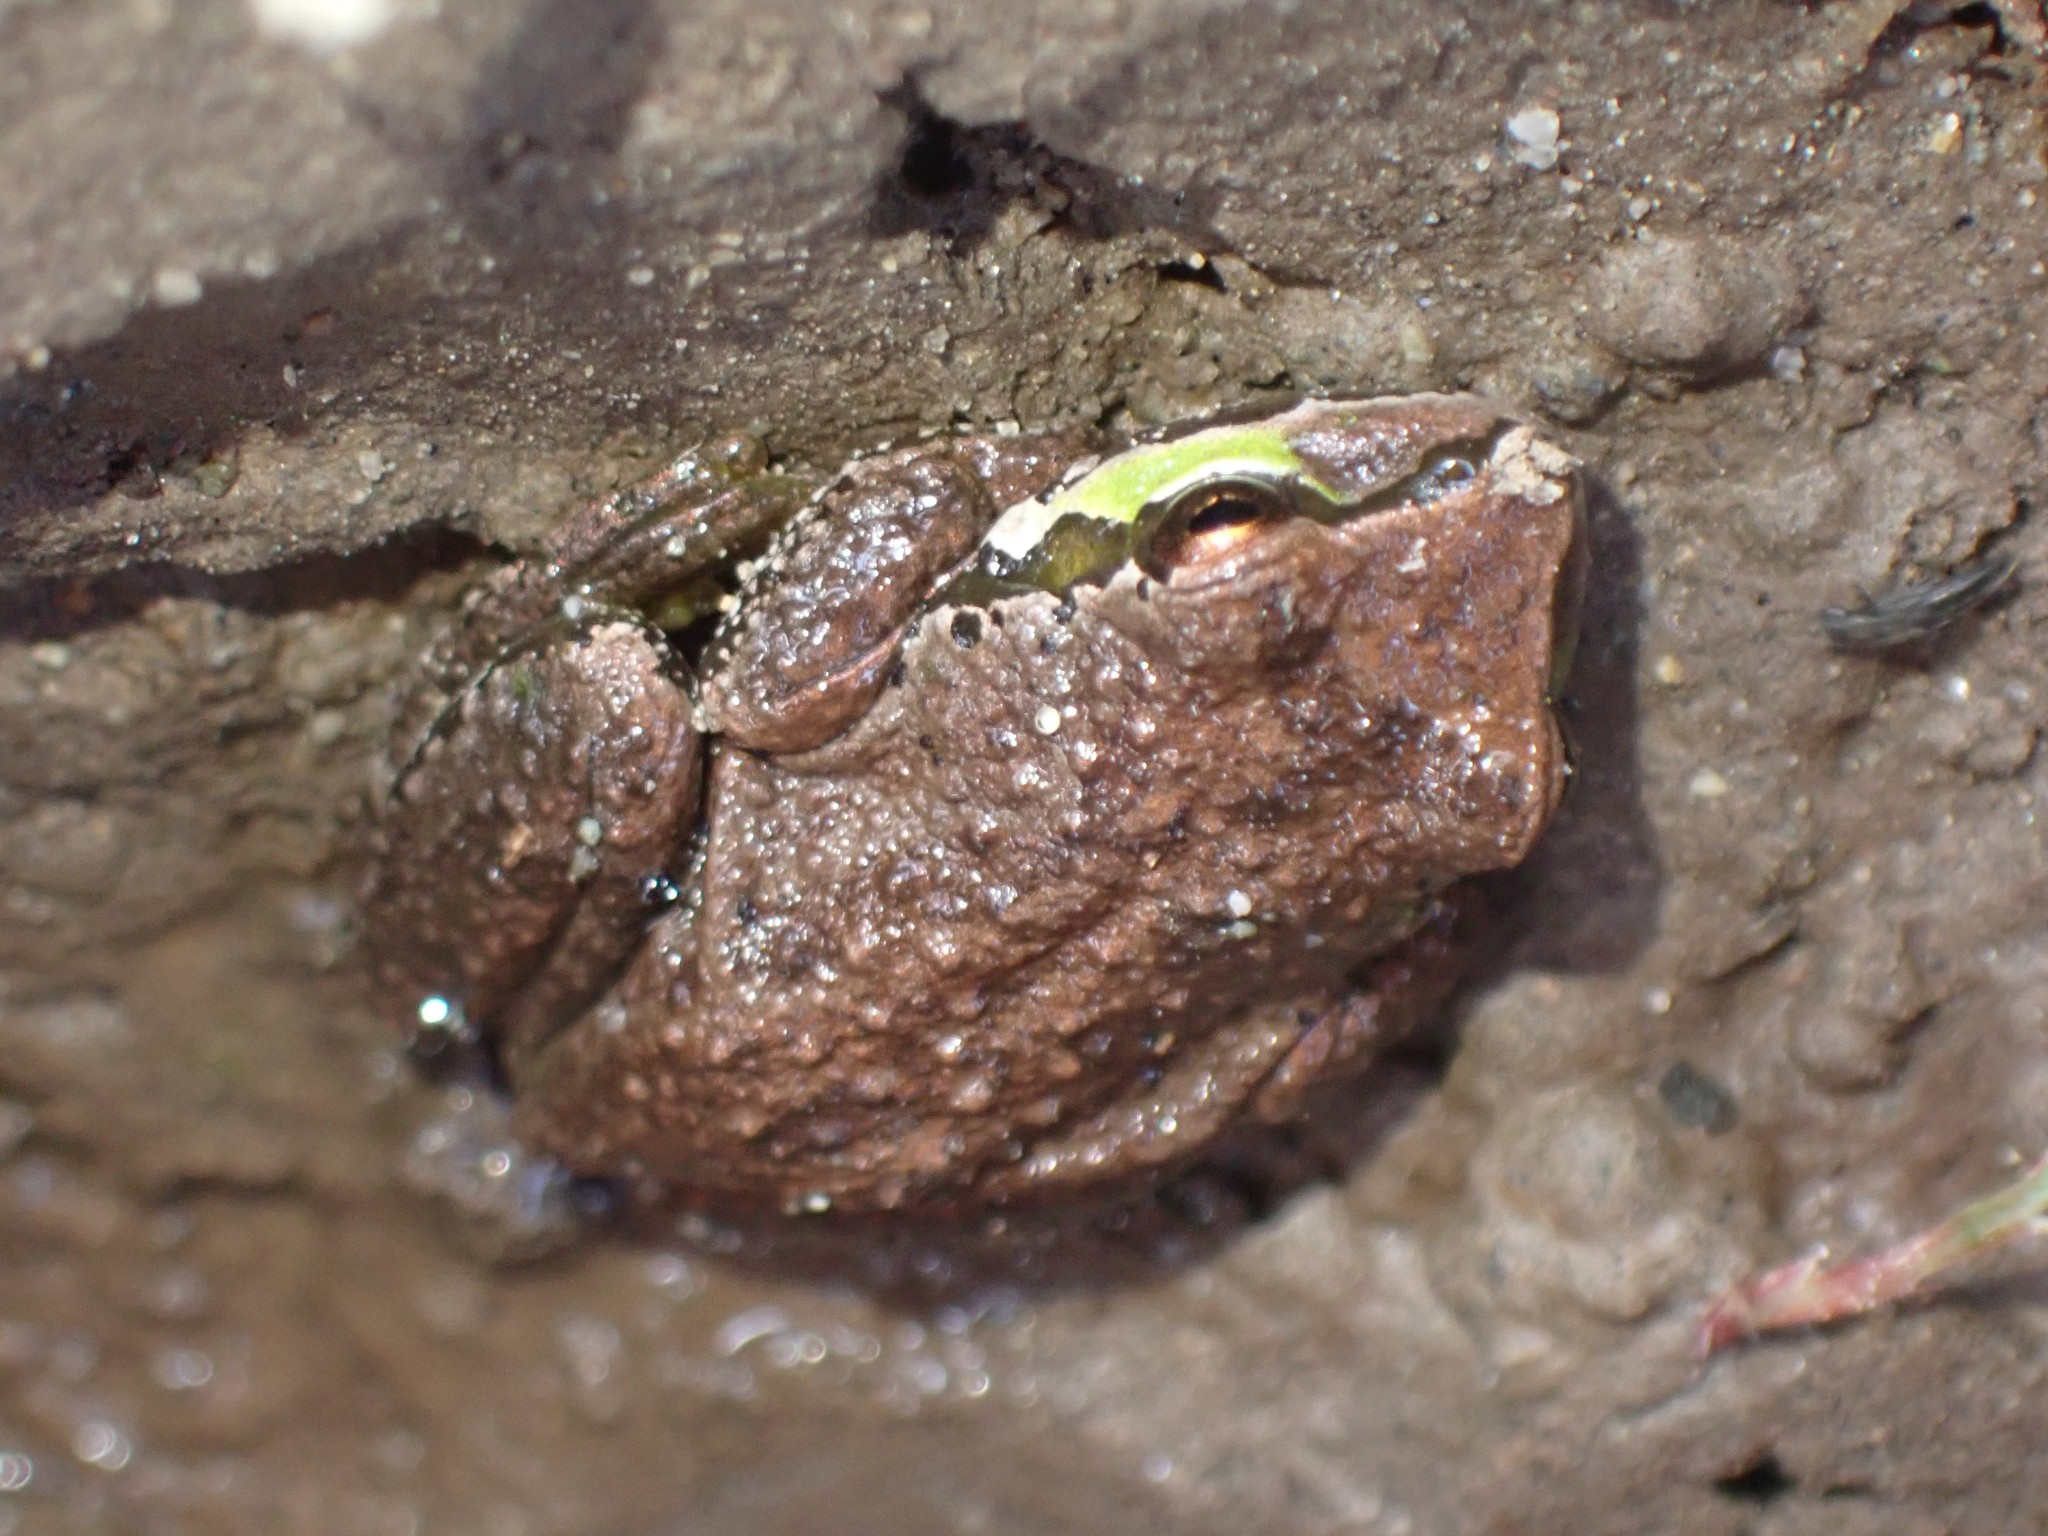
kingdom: Animalia
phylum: Chordata
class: Amphibia
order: Anura
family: Hylidae
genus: Pseudacris
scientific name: Pseudacris regilla
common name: Pacific chorus frog
